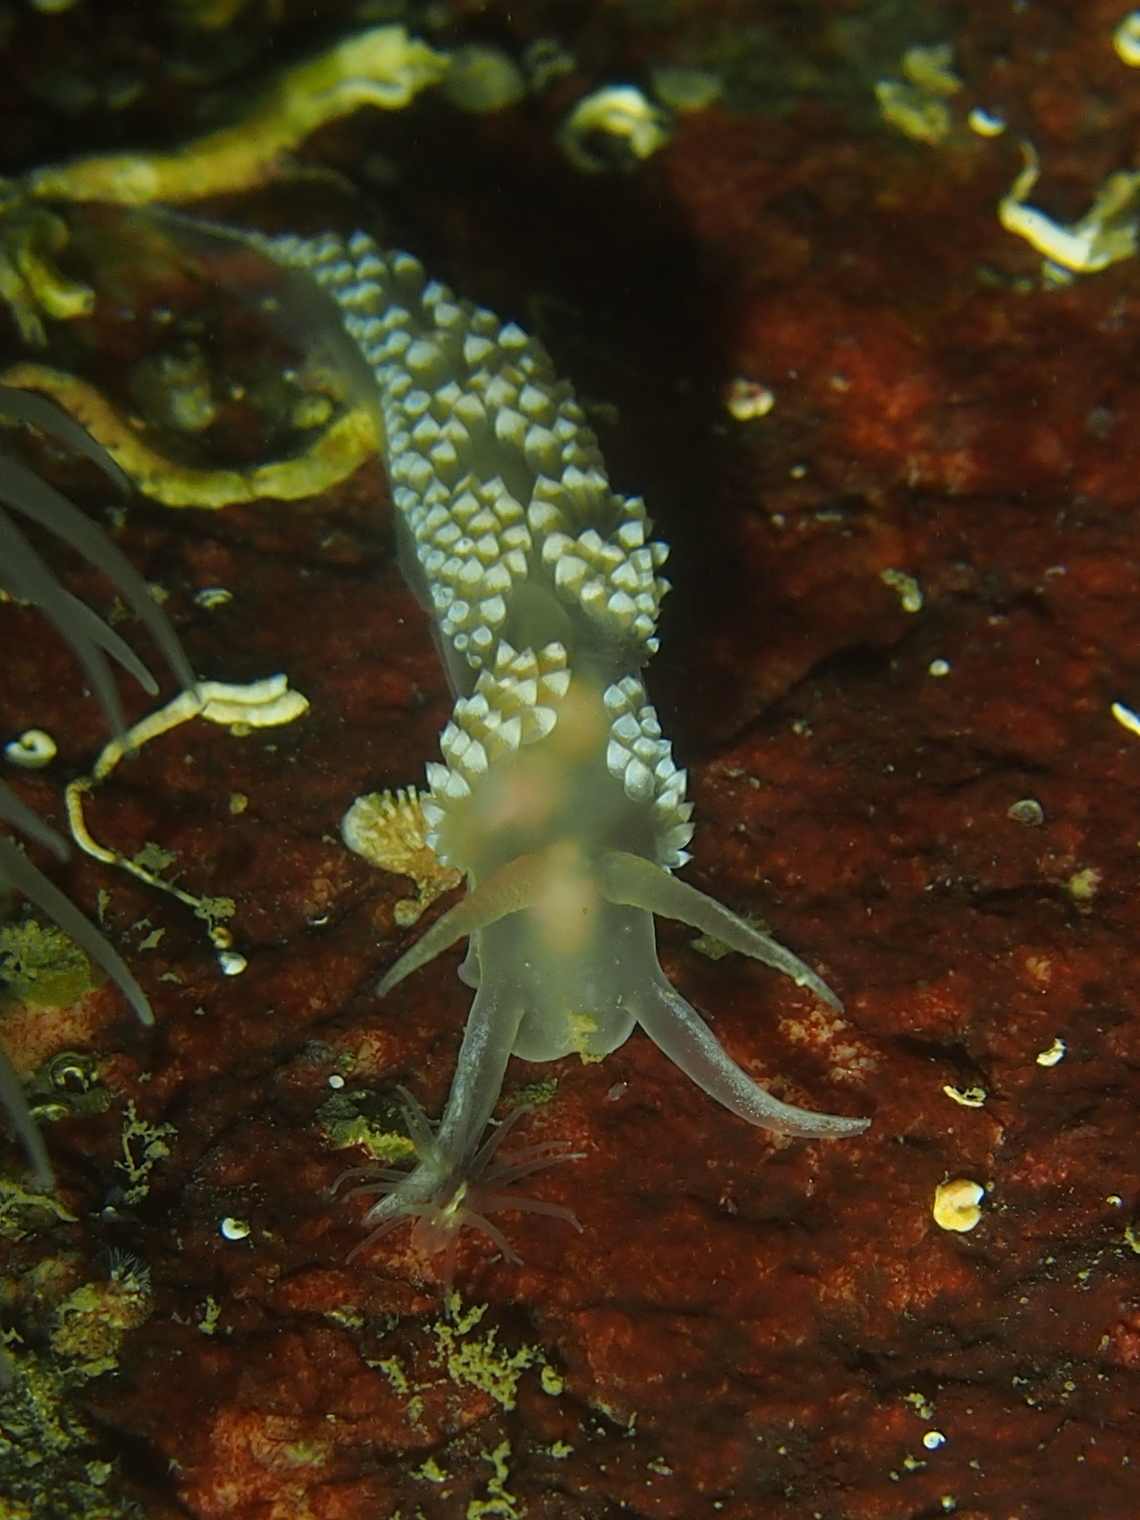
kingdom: Animalia
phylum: Mollusca
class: Gastropoda
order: Nudibranchia
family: Coryphellidae
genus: Coryphella
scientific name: Coryphella verrucosa
